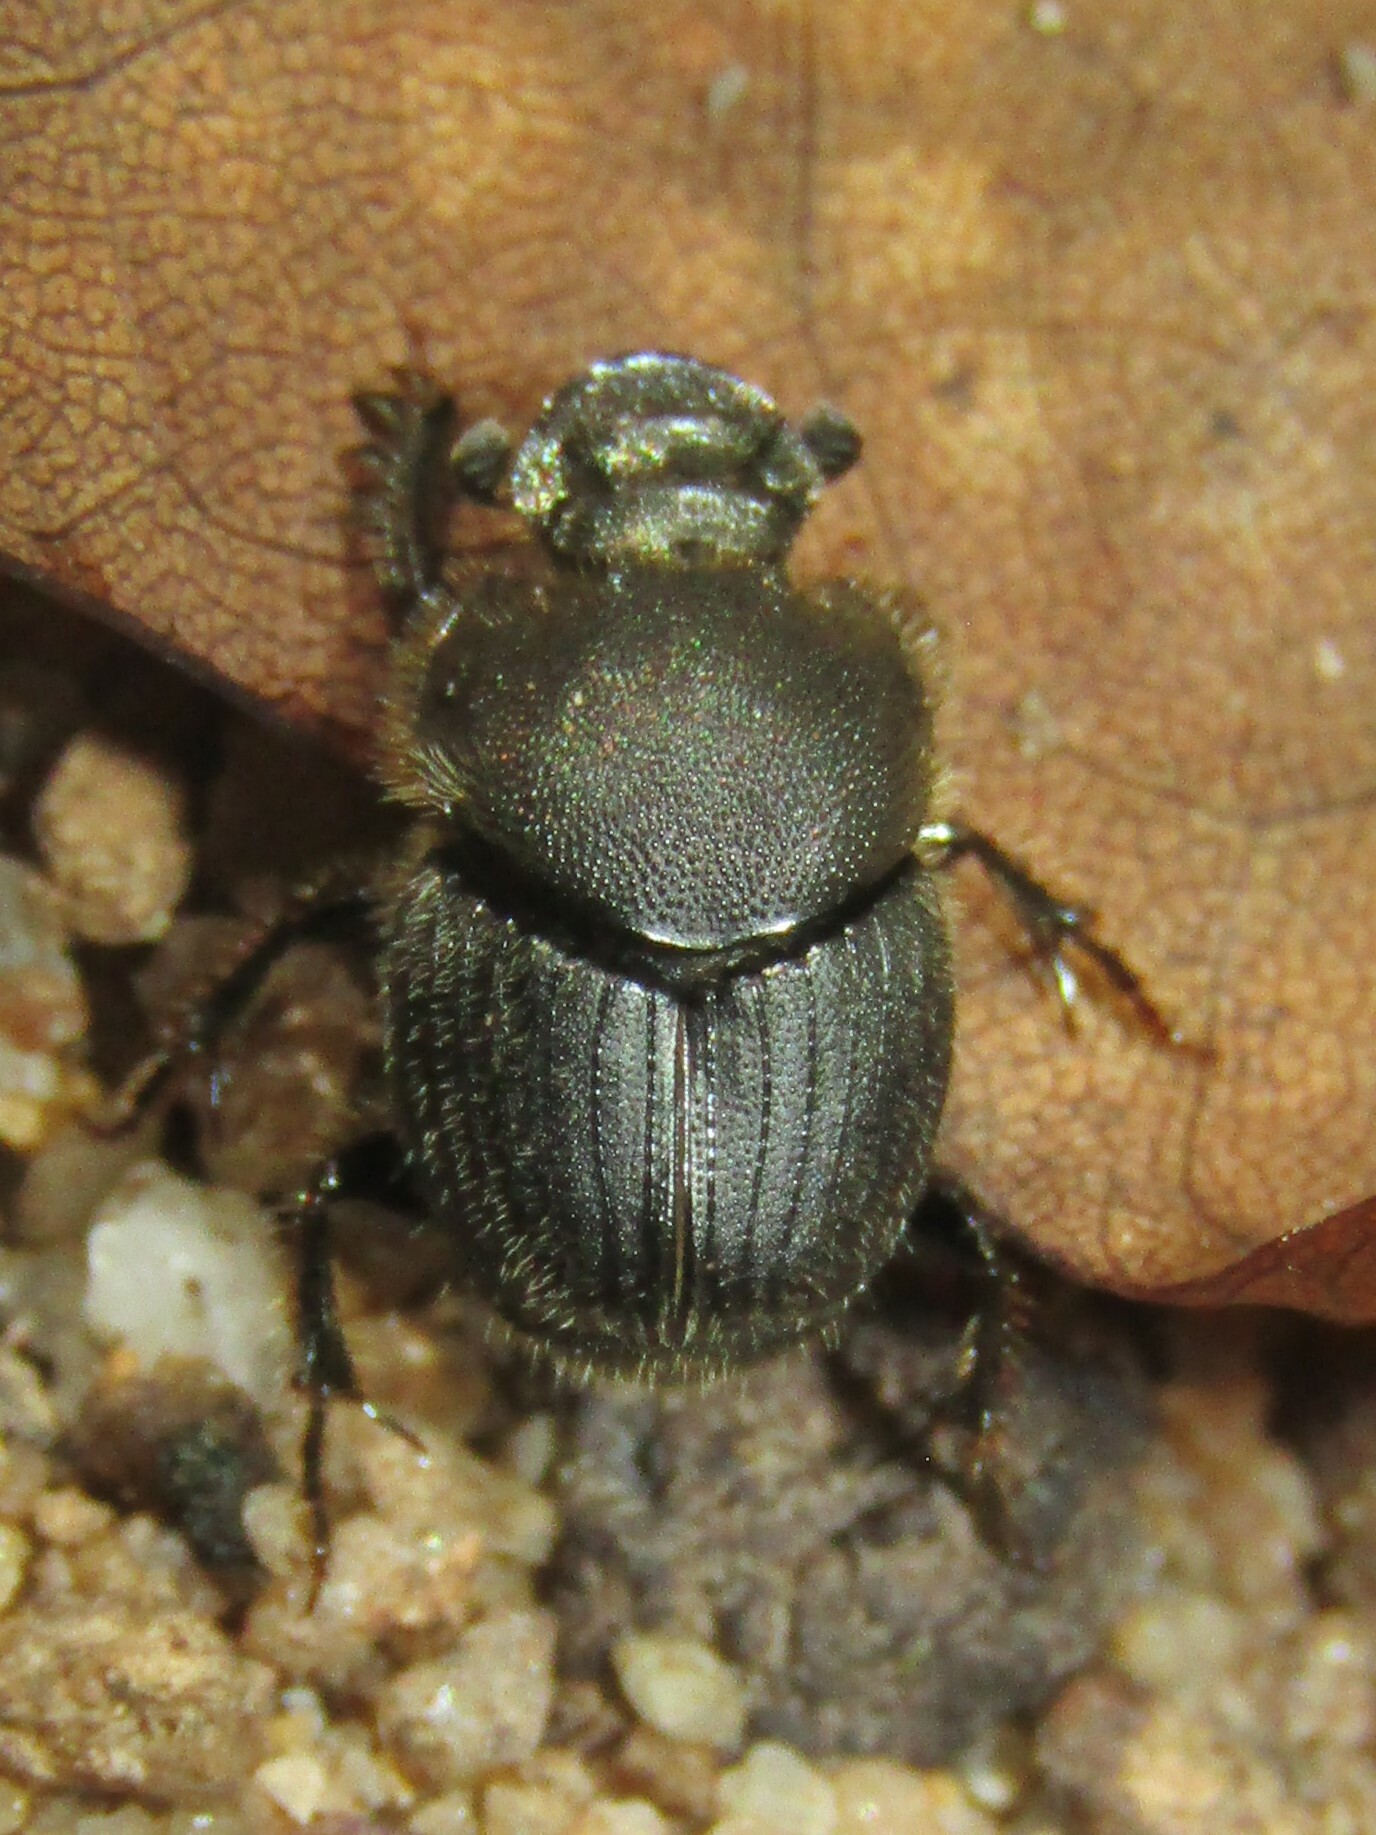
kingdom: Animalia
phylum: Arthropoda
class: Insecta
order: Coleoptera
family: Scarabaeidae
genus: Onthophagus
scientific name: Onthophagus hecate
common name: Scooped scarab
